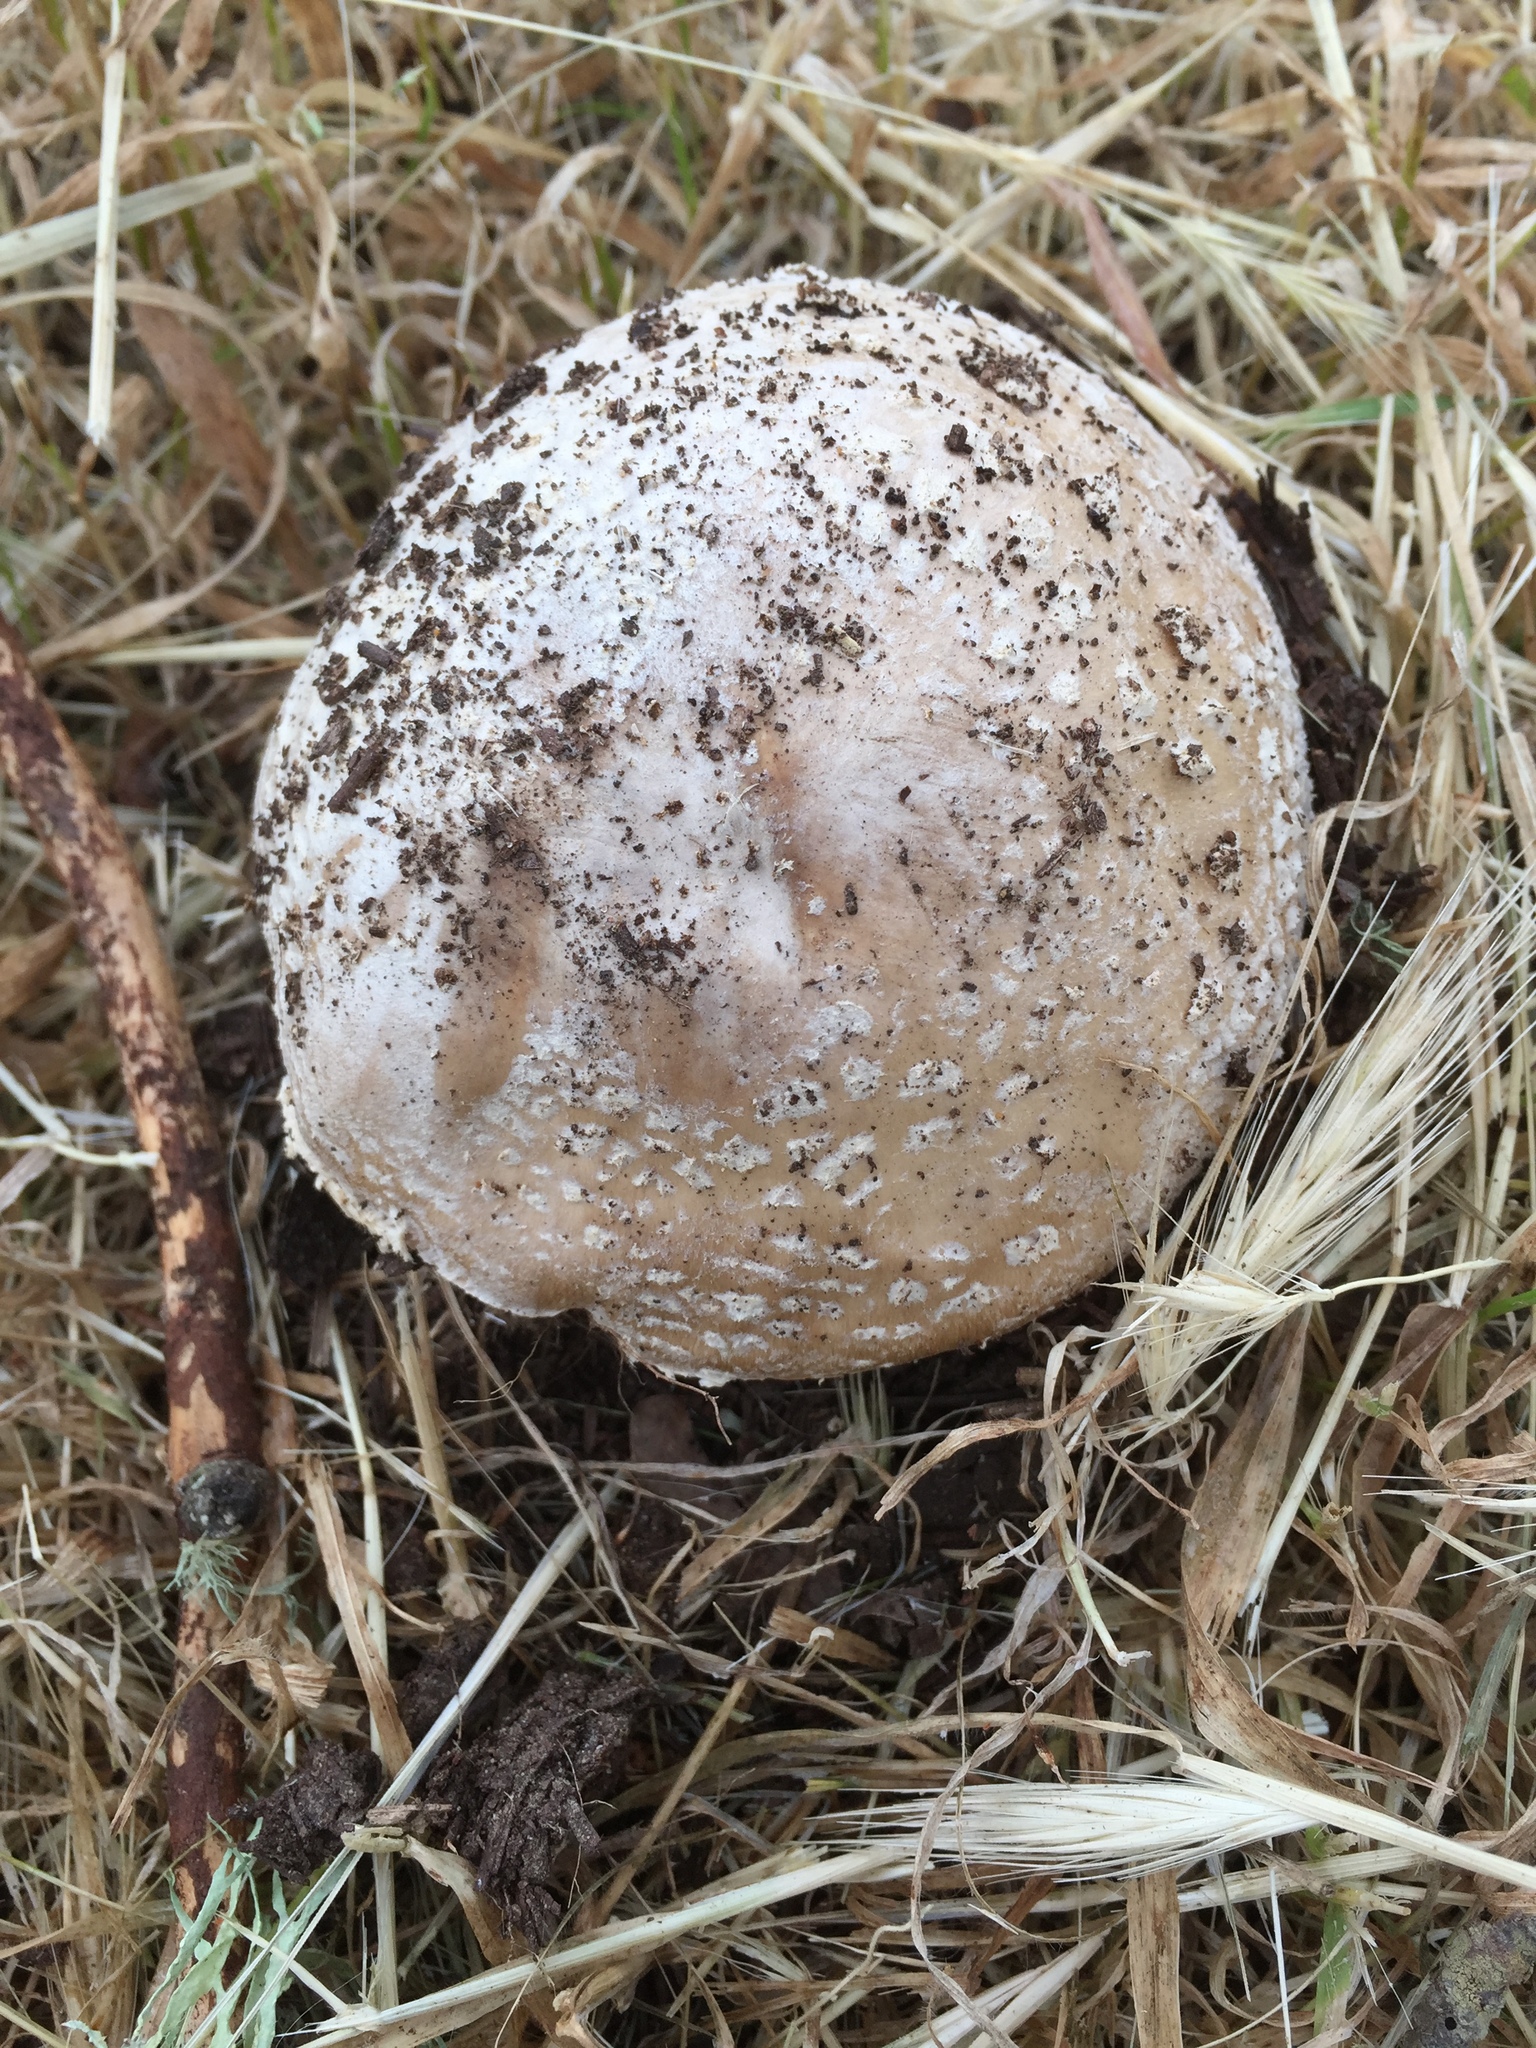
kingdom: Fungi
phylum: Basidiomycota
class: Agaricomycetes
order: Agaricales
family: Amanitaceae
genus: Amanita
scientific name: Amanita pantherina
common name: Panthercap
